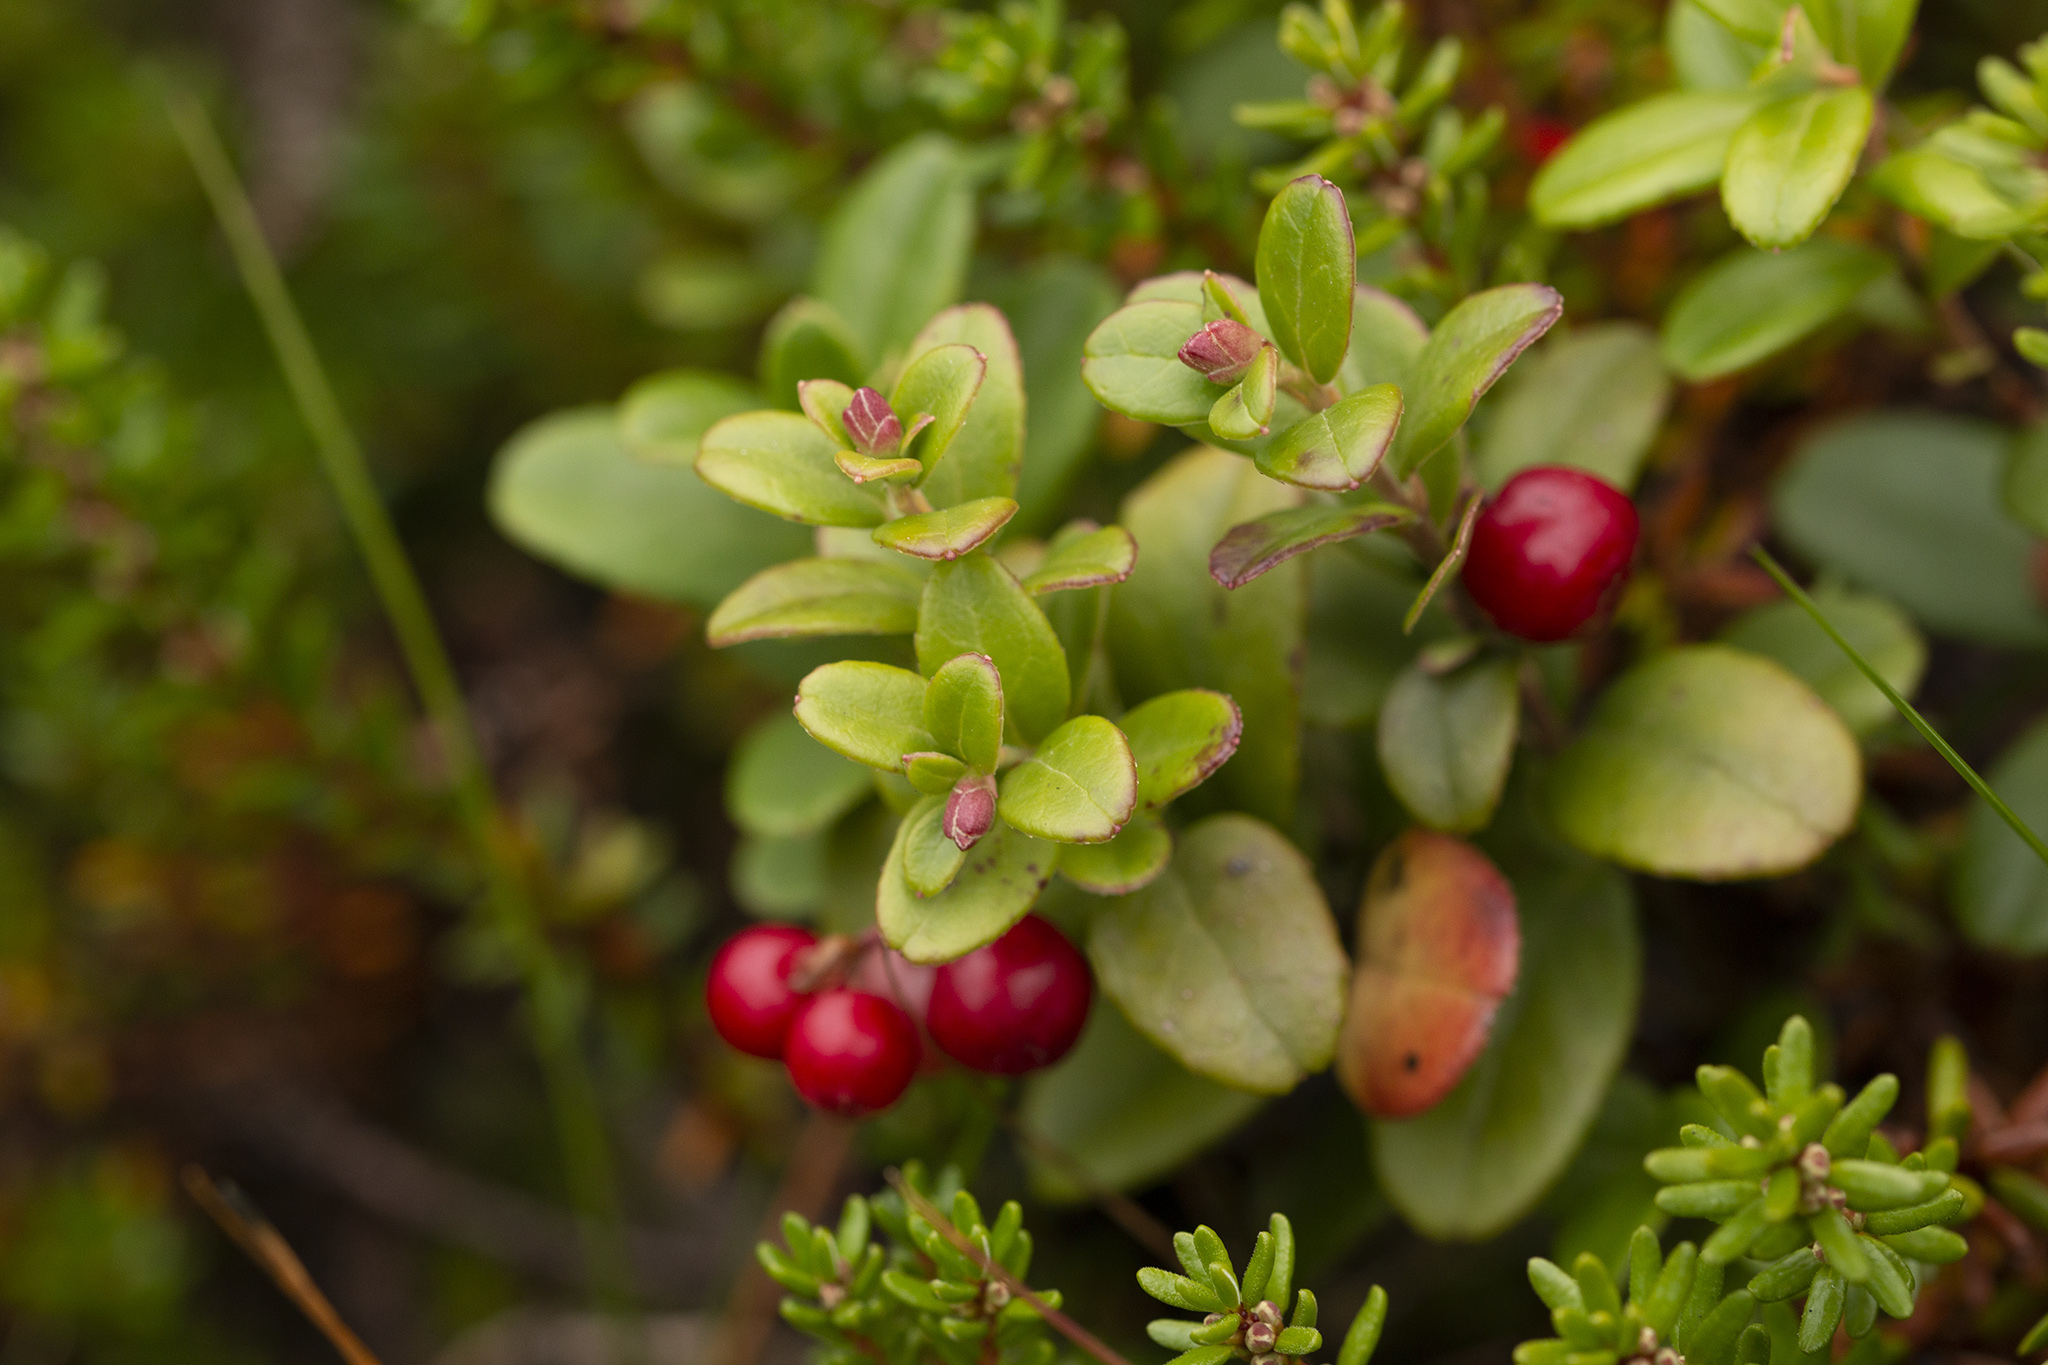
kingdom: Plantae
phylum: Tracheophyta
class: Magnoliopsida
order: Ericales
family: Ericaceae
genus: Vaccinium
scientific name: Vaccinium vitis-idaea
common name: Cowberry
